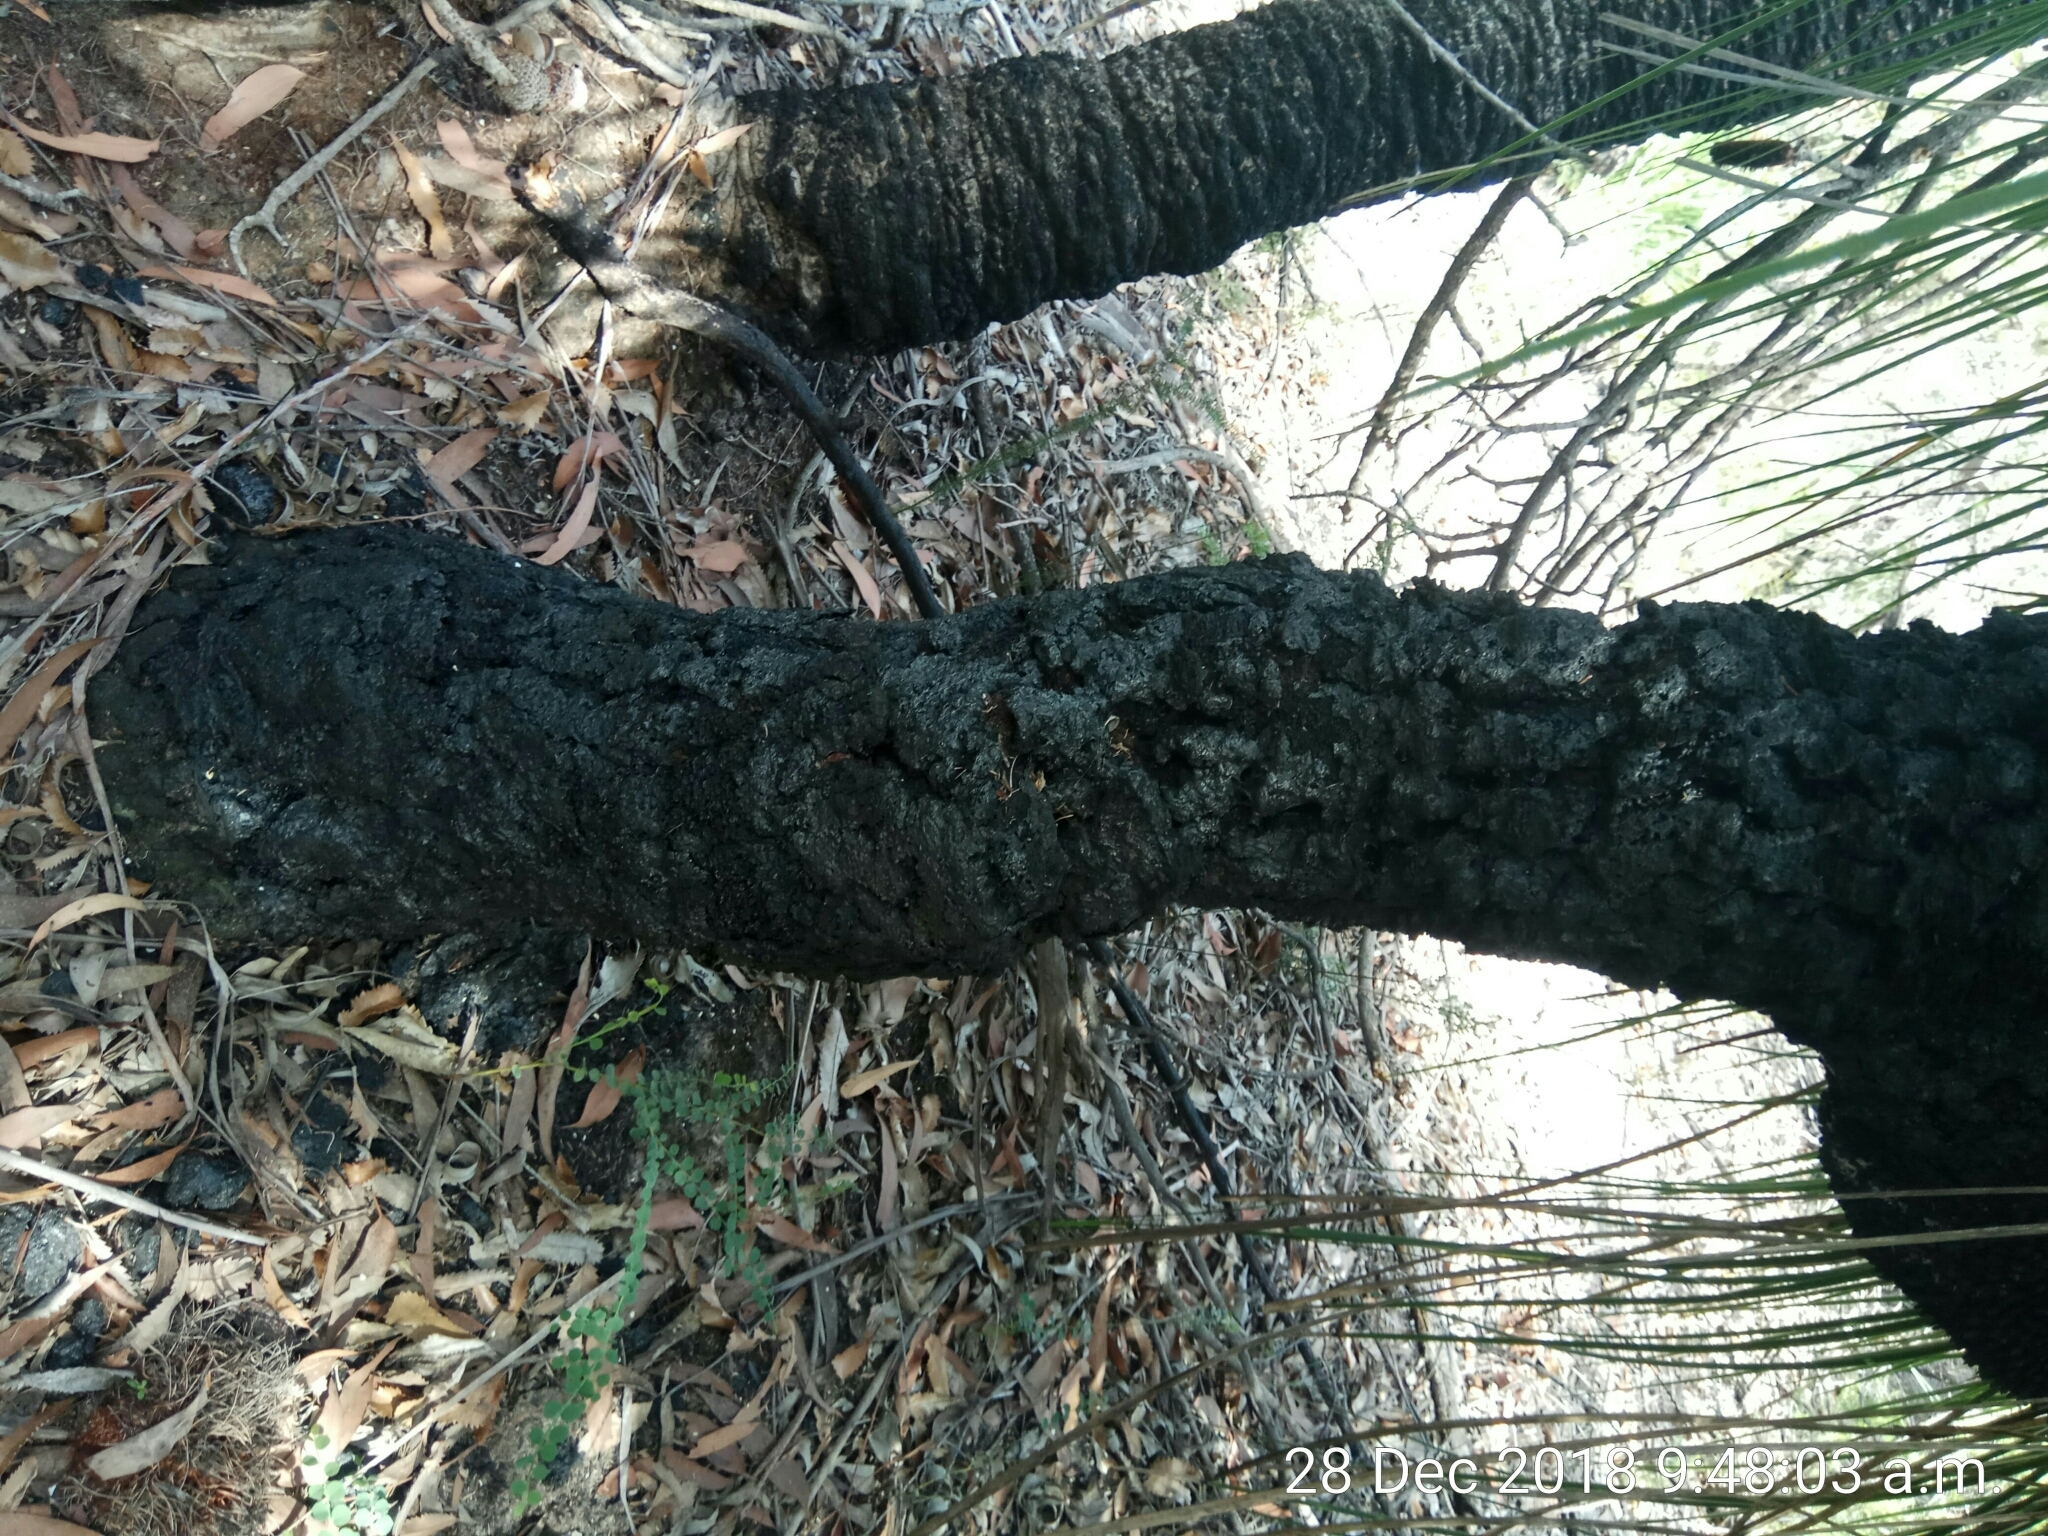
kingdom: Plantae
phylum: Tracheophyta
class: Liliopsida
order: Asparagales
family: Asphodelaceae
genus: Xanthorrhoea
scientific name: Xanthorrhoea arborea
